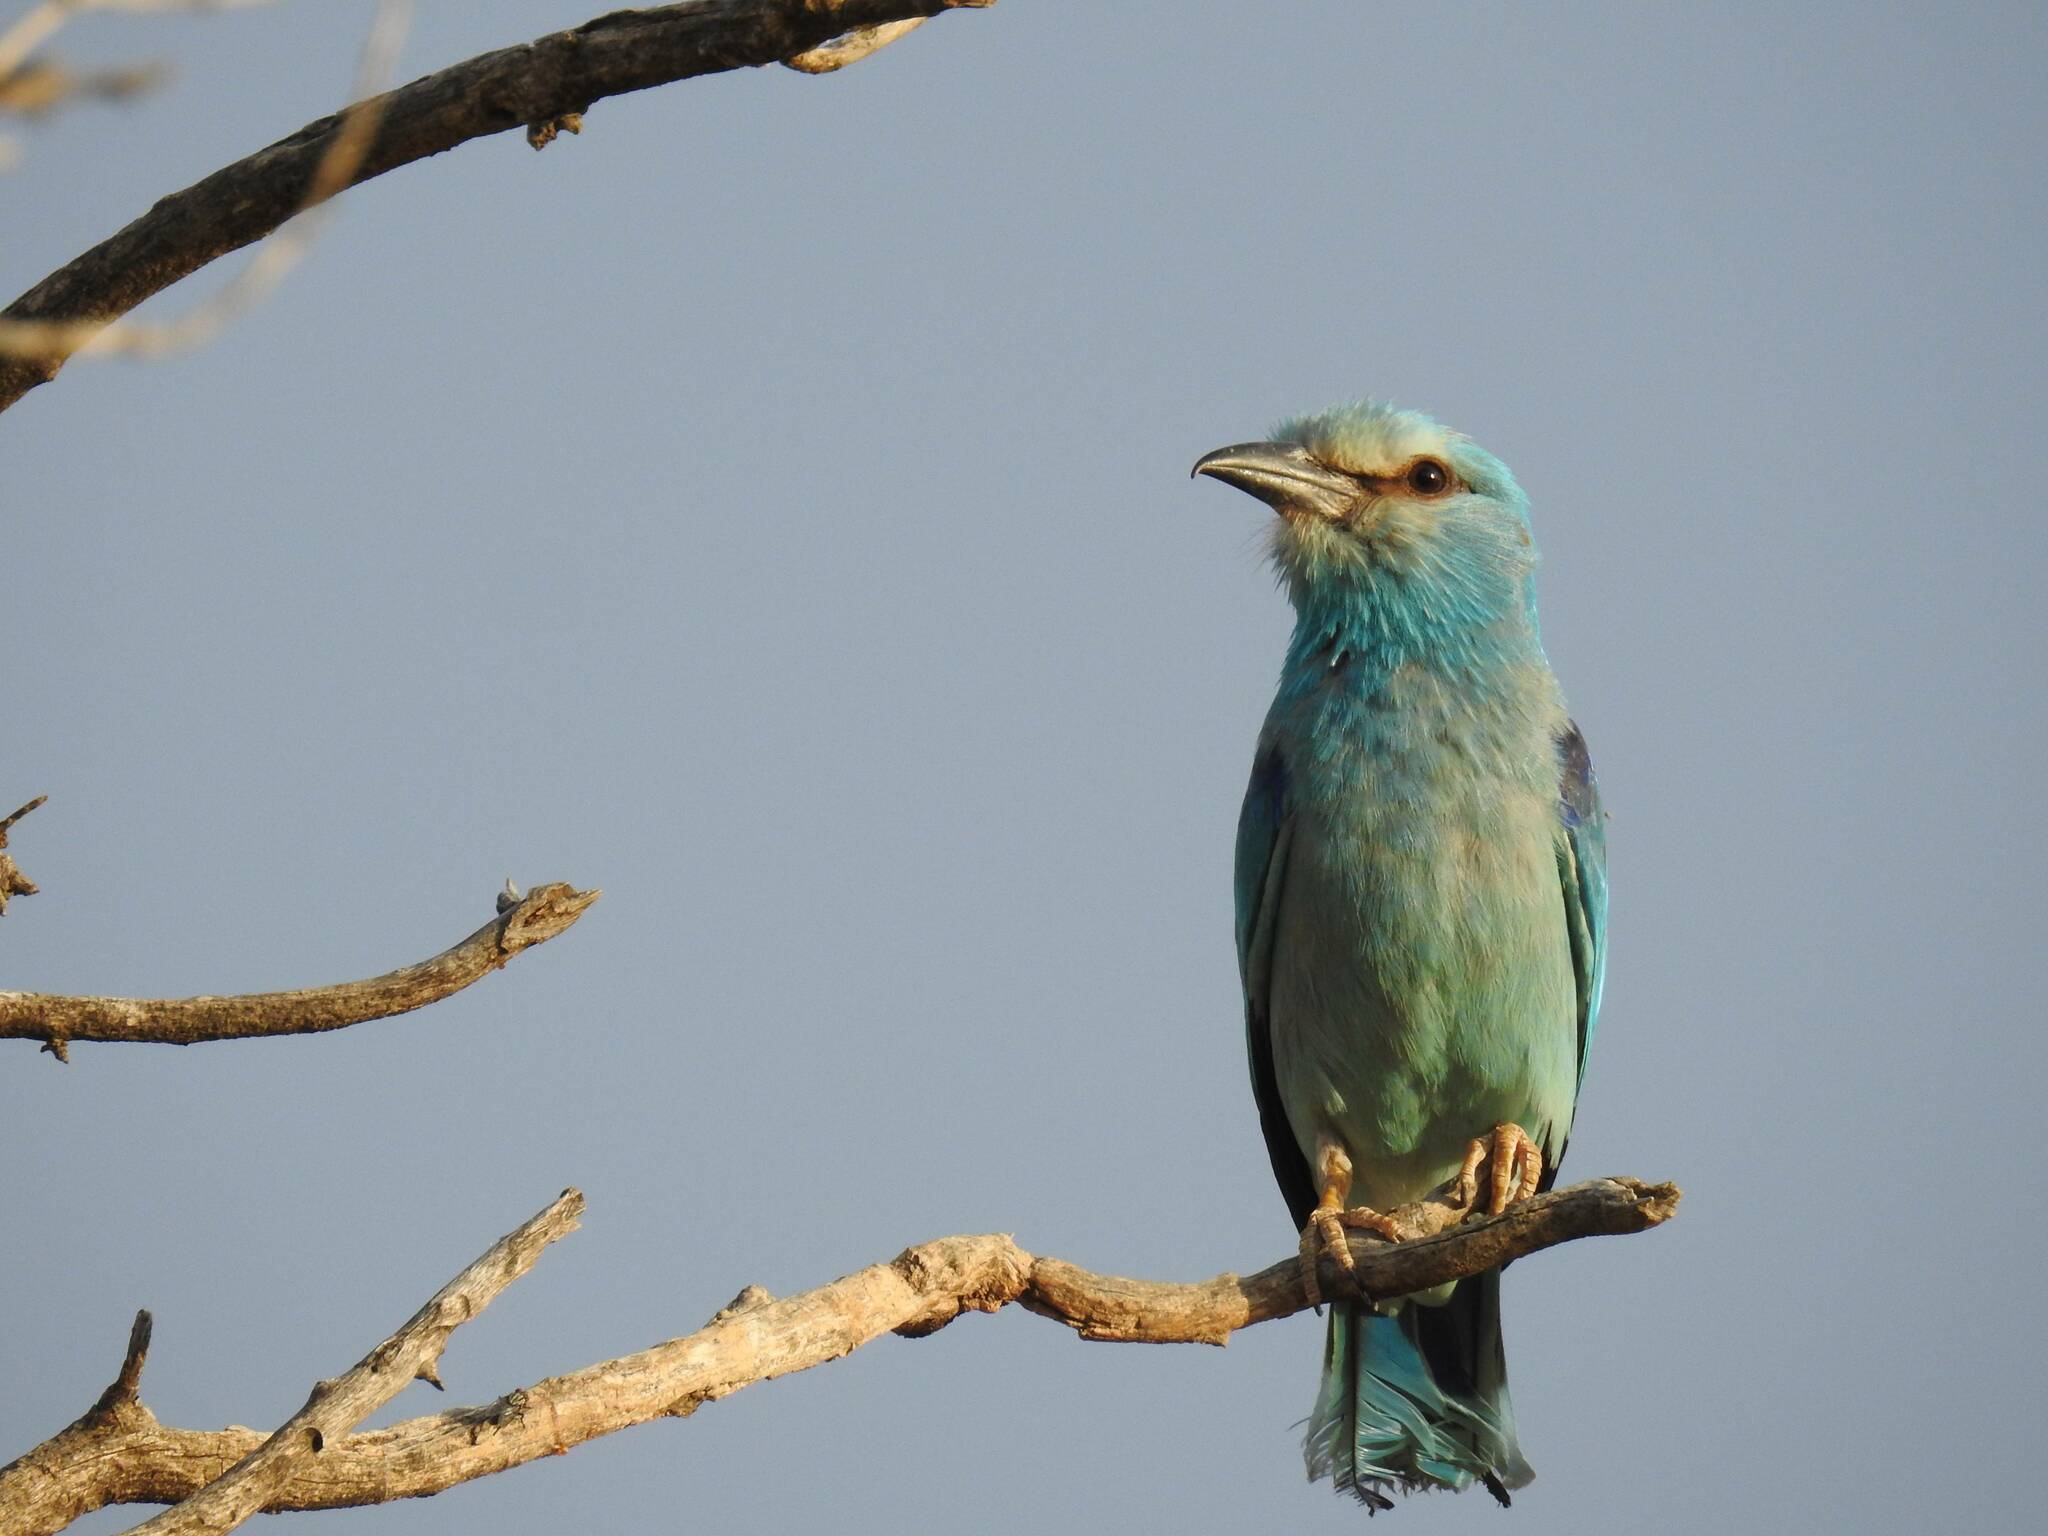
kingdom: Animalia
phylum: Chordata
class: Aves
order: Coraciiformes
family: Coraciidae
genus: Coracias
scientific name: Coracias garrulus
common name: European roller
